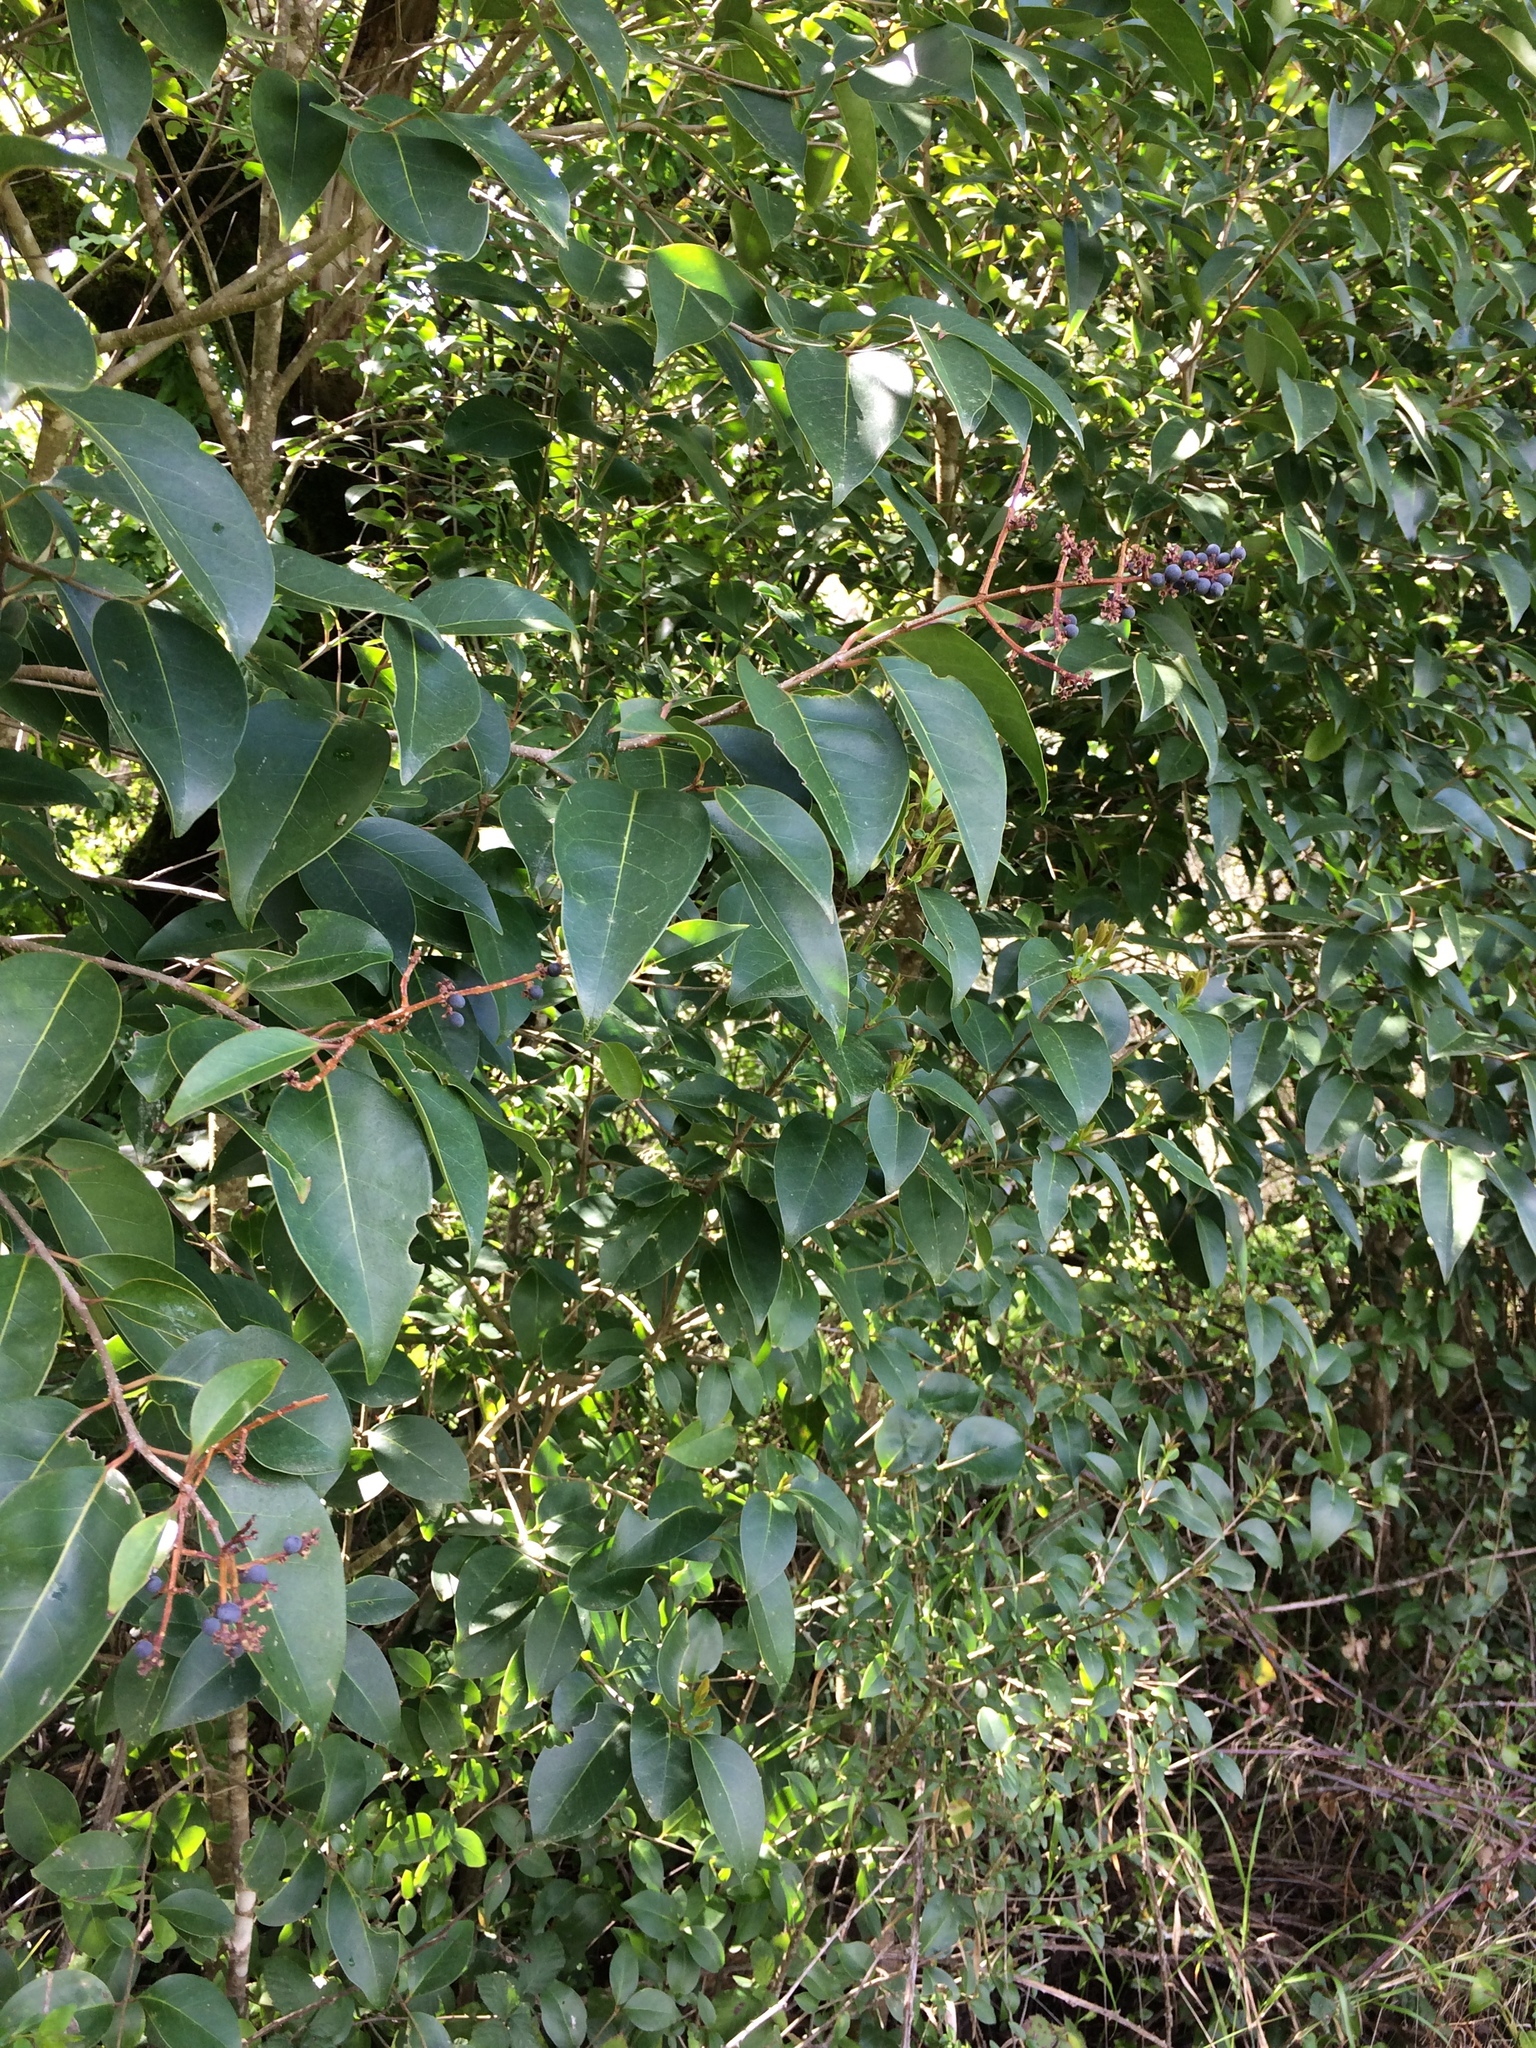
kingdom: Plantae
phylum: Tracheophyta
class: Magnoliopsida
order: Lamiales
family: Oleaceae
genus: Ligustrum
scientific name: Ligustrum lucidum
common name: Glossy privet
